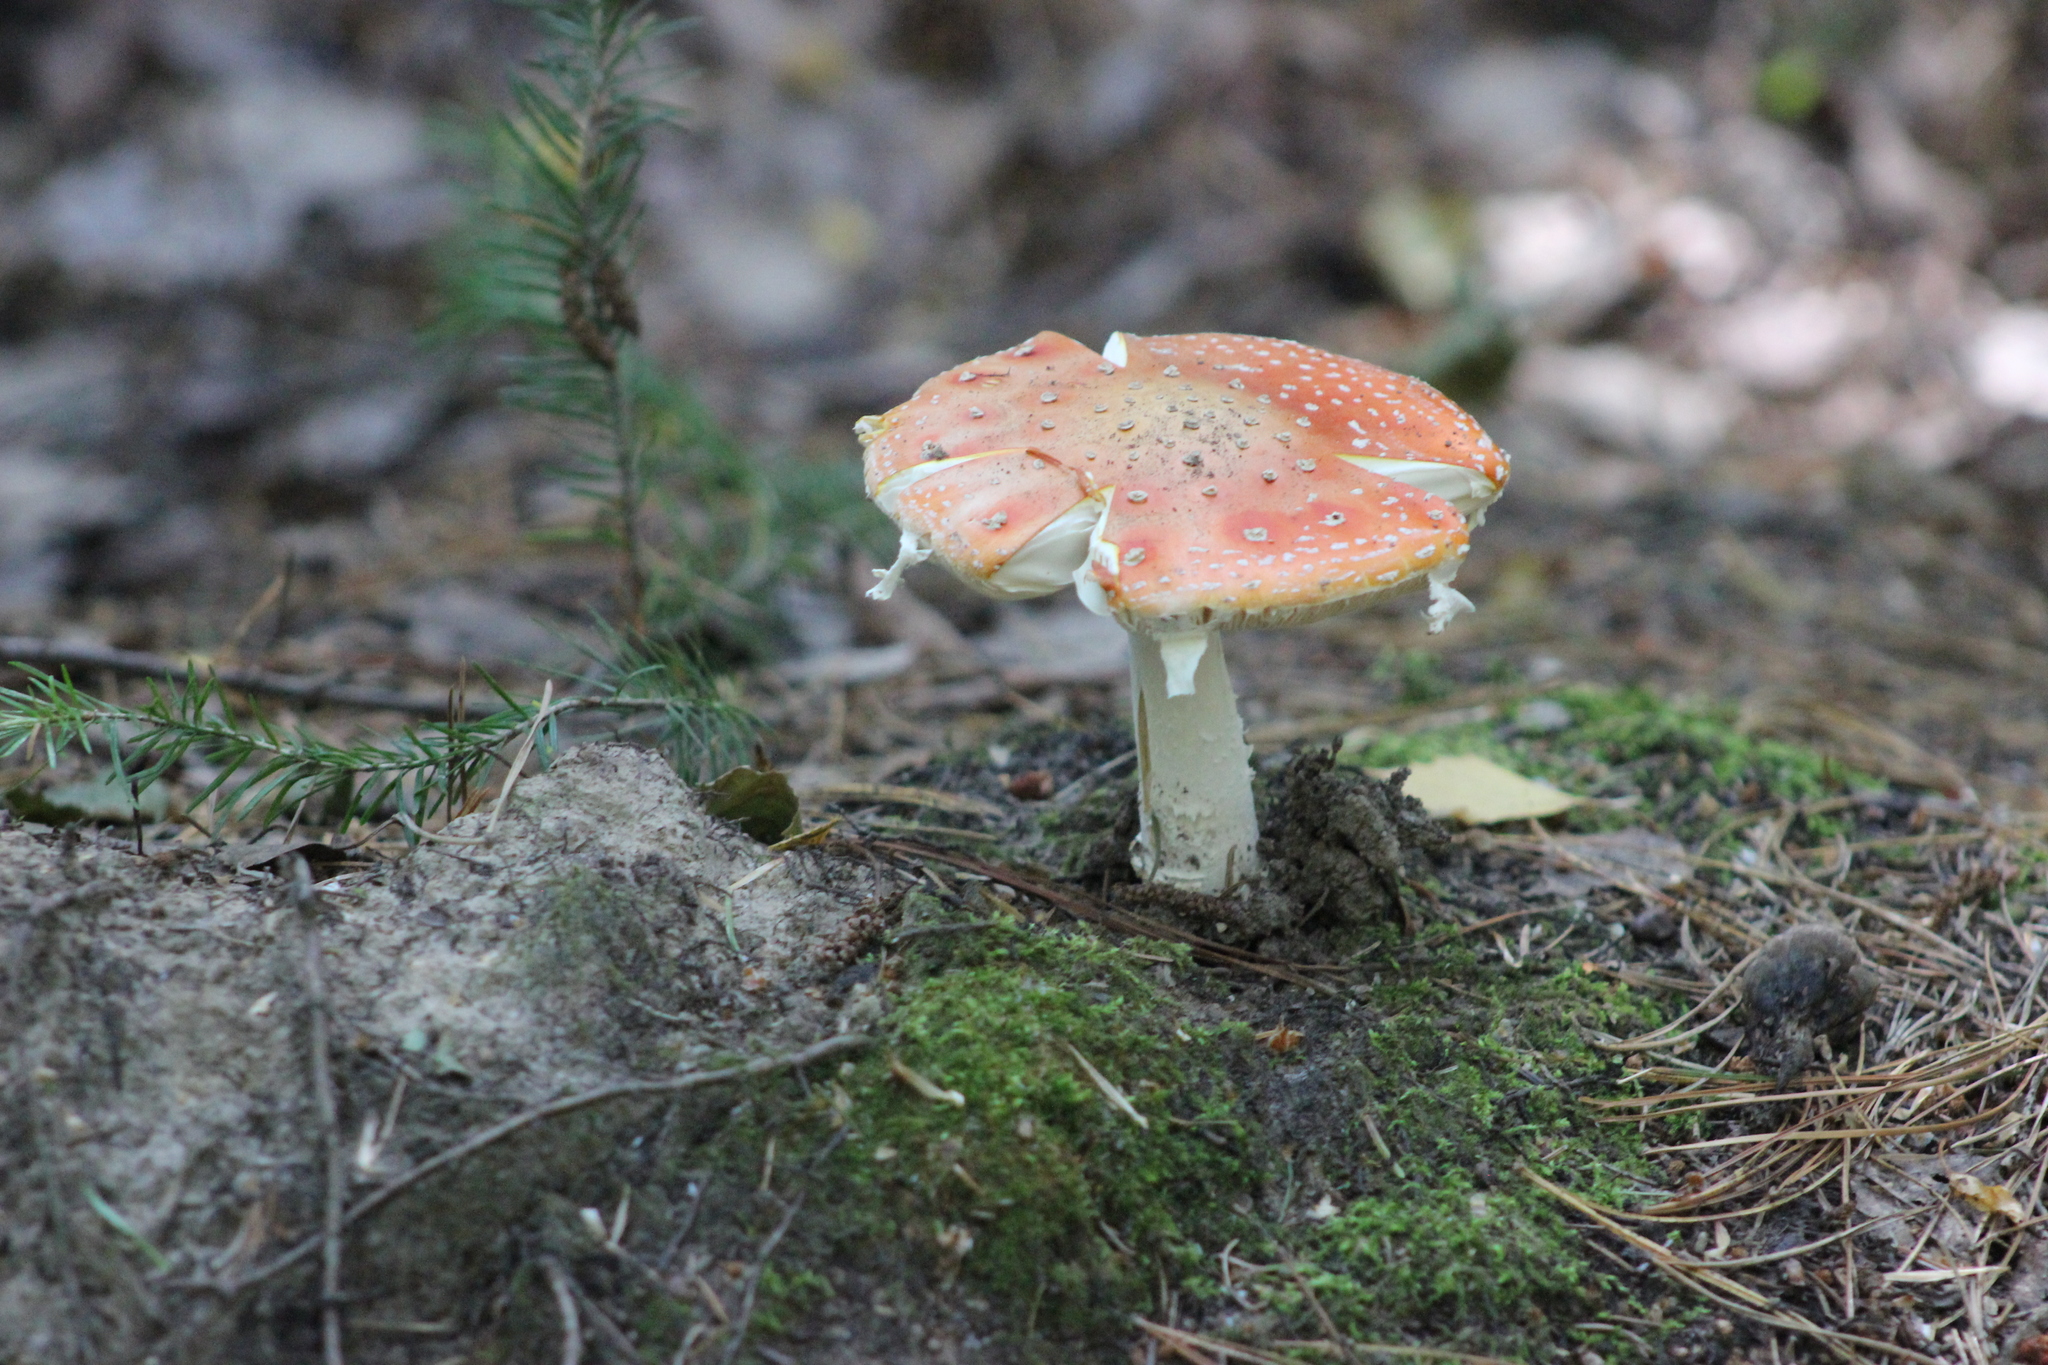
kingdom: Fungi
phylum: Basidiomycota
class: Agaricomycetes
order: Agaricales
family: Amanitaceae
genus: Amanita
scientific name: Amanita muscaria
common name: Fly agaric
